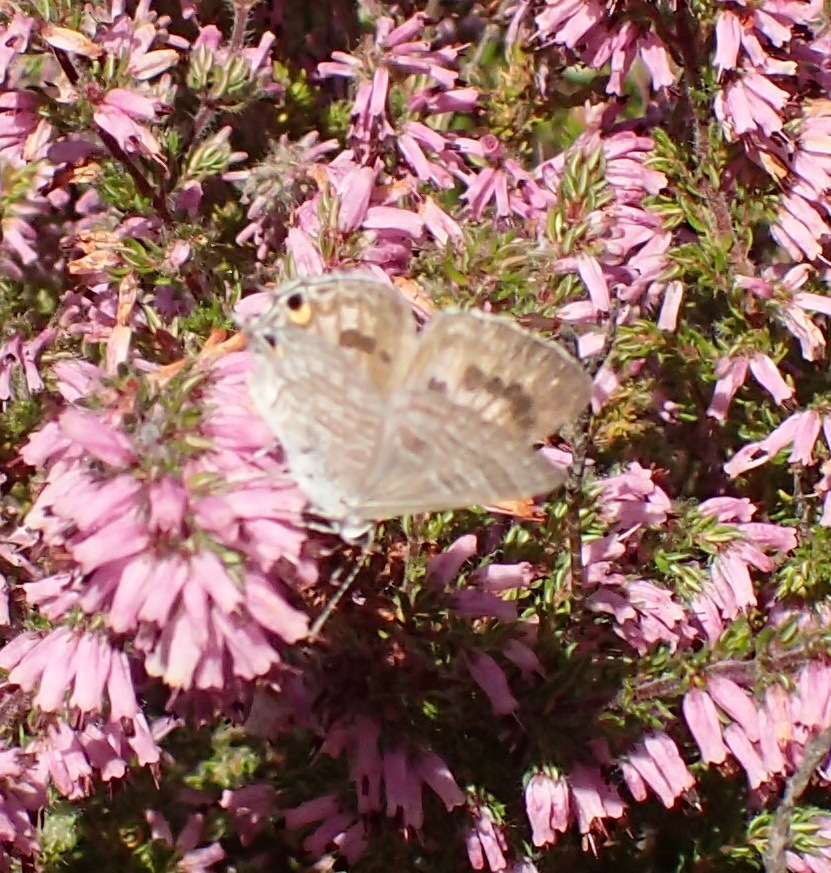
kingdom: Animalia
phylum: Arthropoda
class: Insecta
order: Lepidoptera
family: Lycaenidae
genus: Anthene
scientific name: Anthene definita
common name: Common ciliate blue
